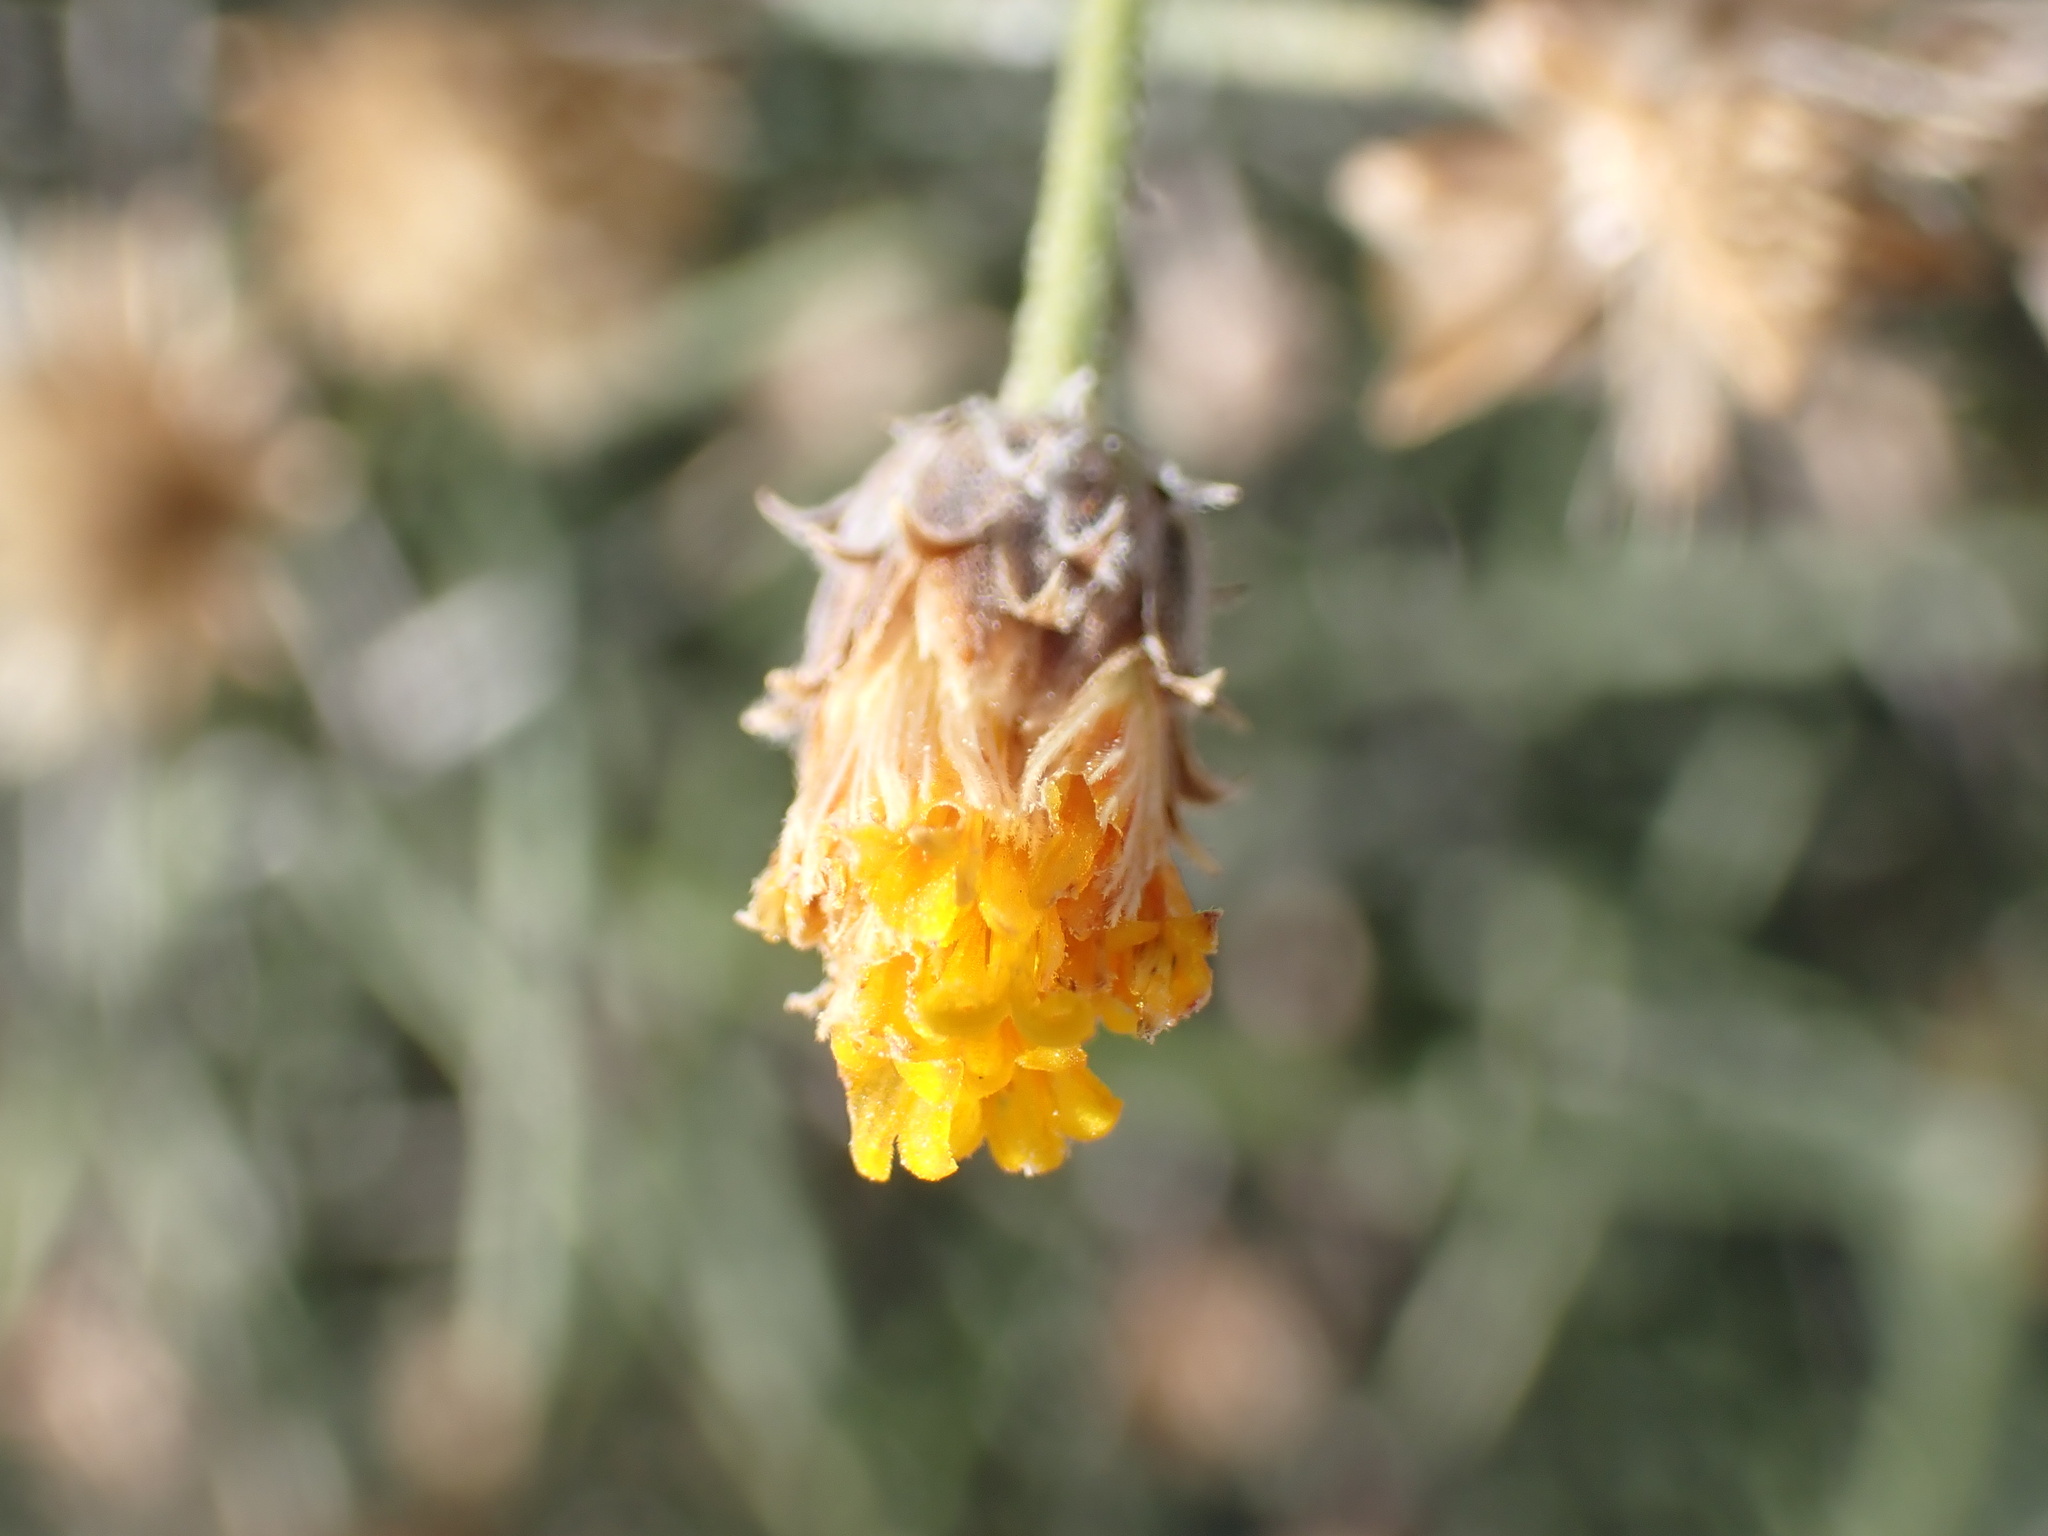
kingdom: Plantae
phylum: Tracheophyta
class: Magnoliopsida
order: Asterales
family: Asteraceae
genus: Bebbia
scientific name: Bebbia juncea
